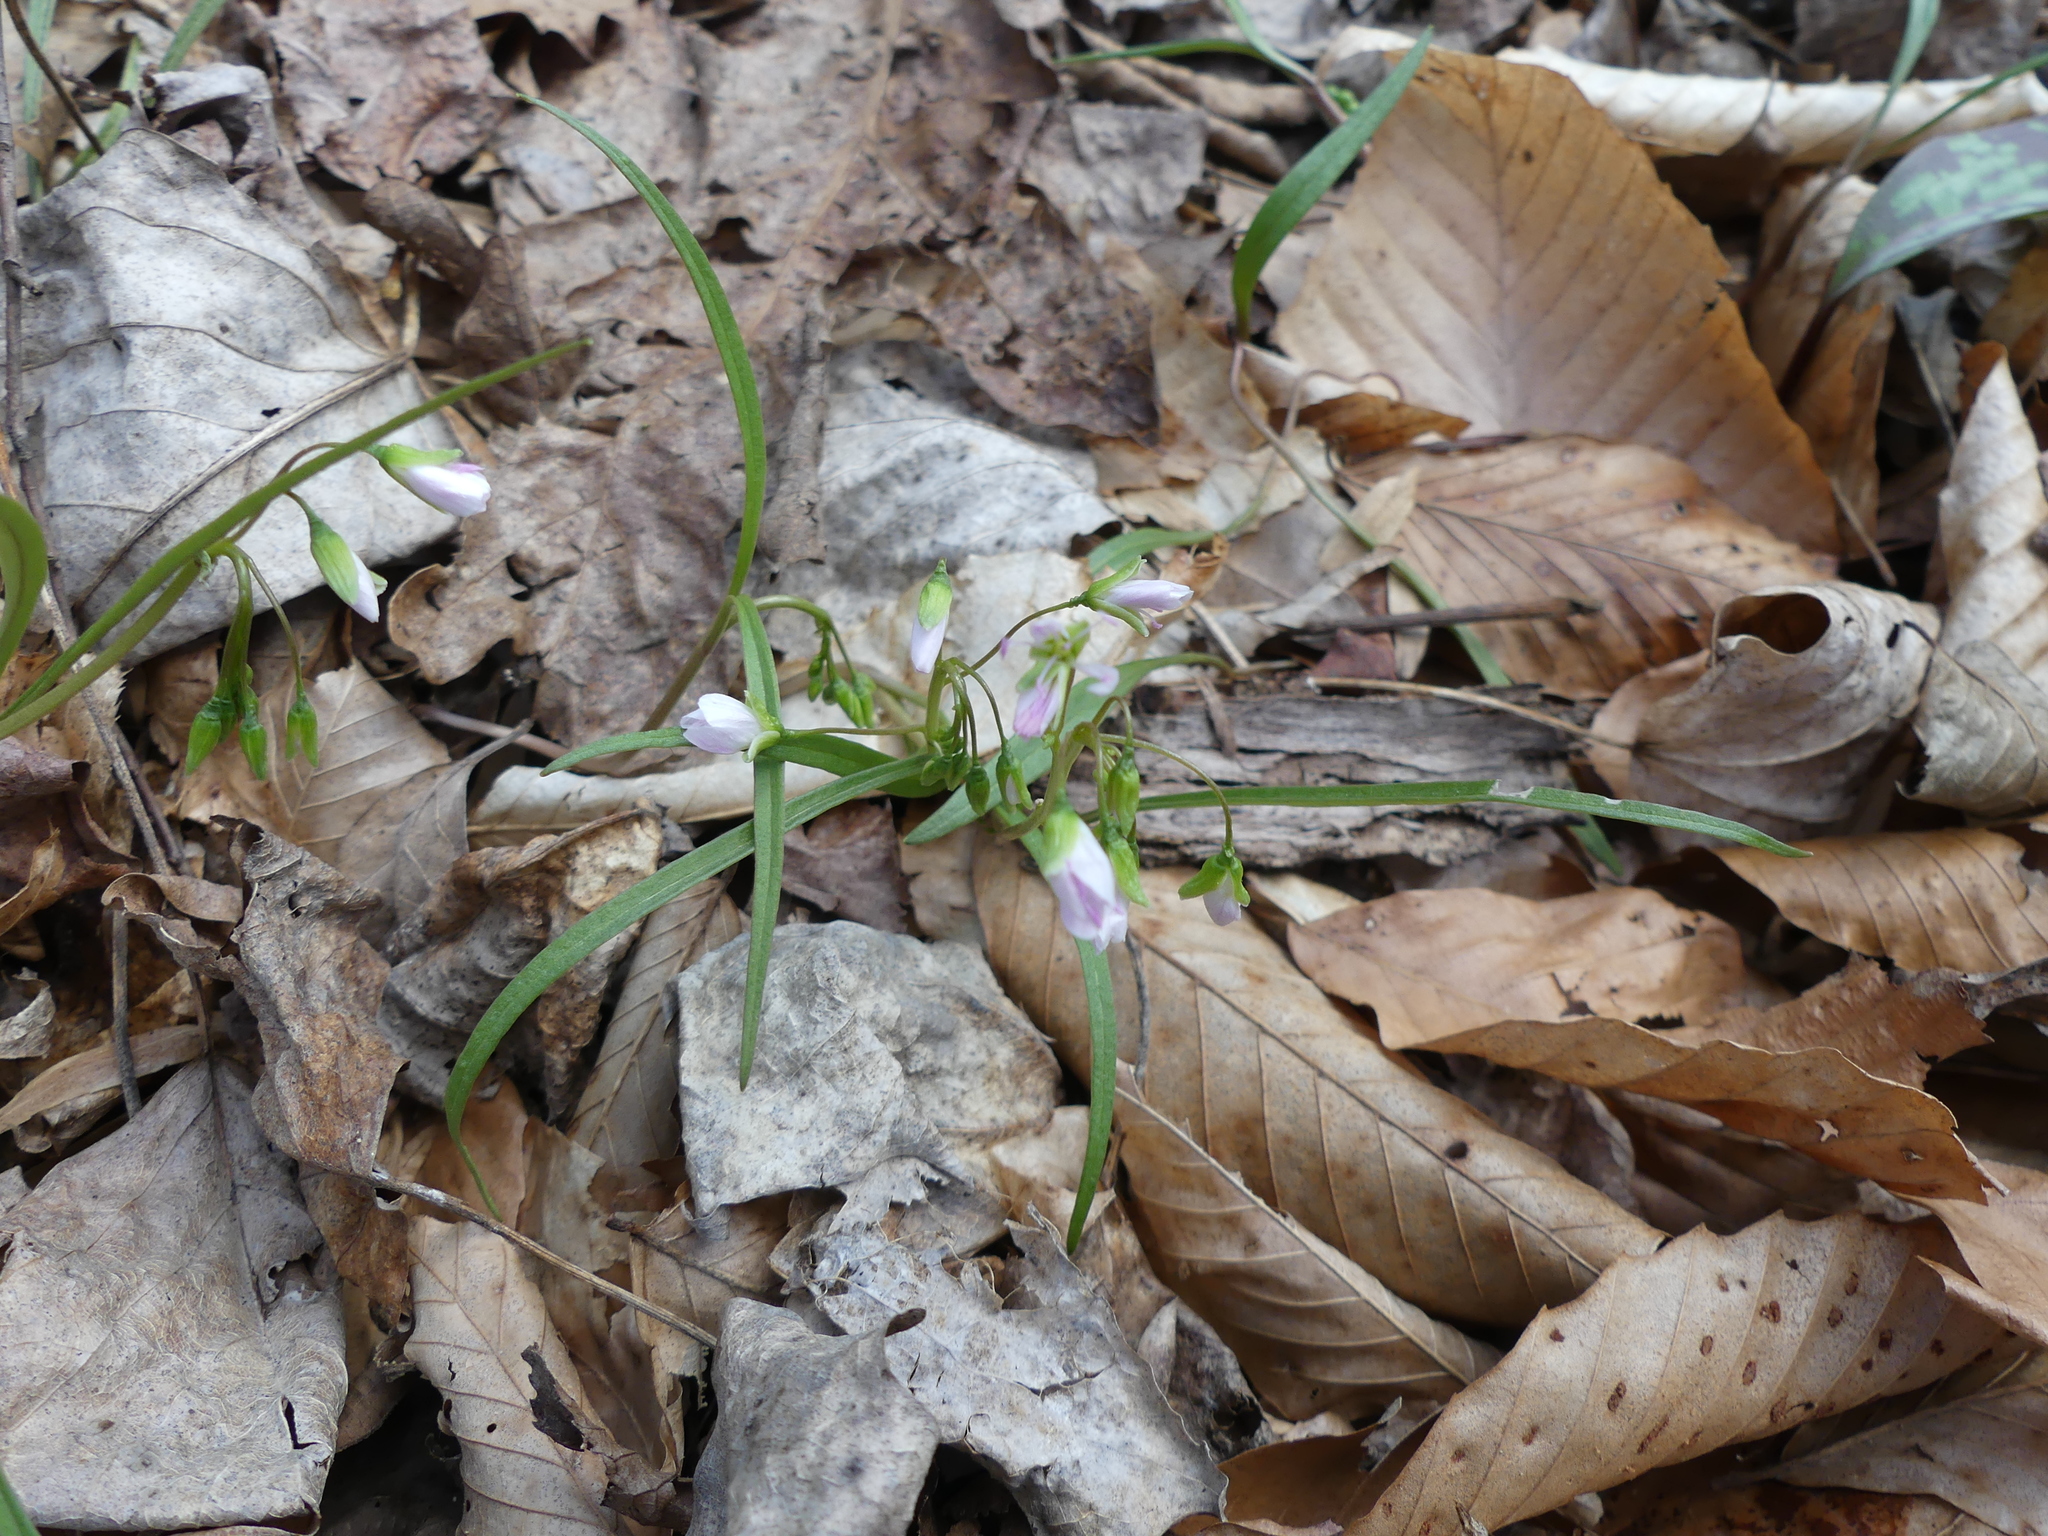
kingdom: Plantae
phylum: Tracheophyta
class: Magnoliopsida
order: Caryophyllales
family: Montiaceae
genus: Claytonia
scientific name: Claytonia virginica
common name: Virginia springbeauty
